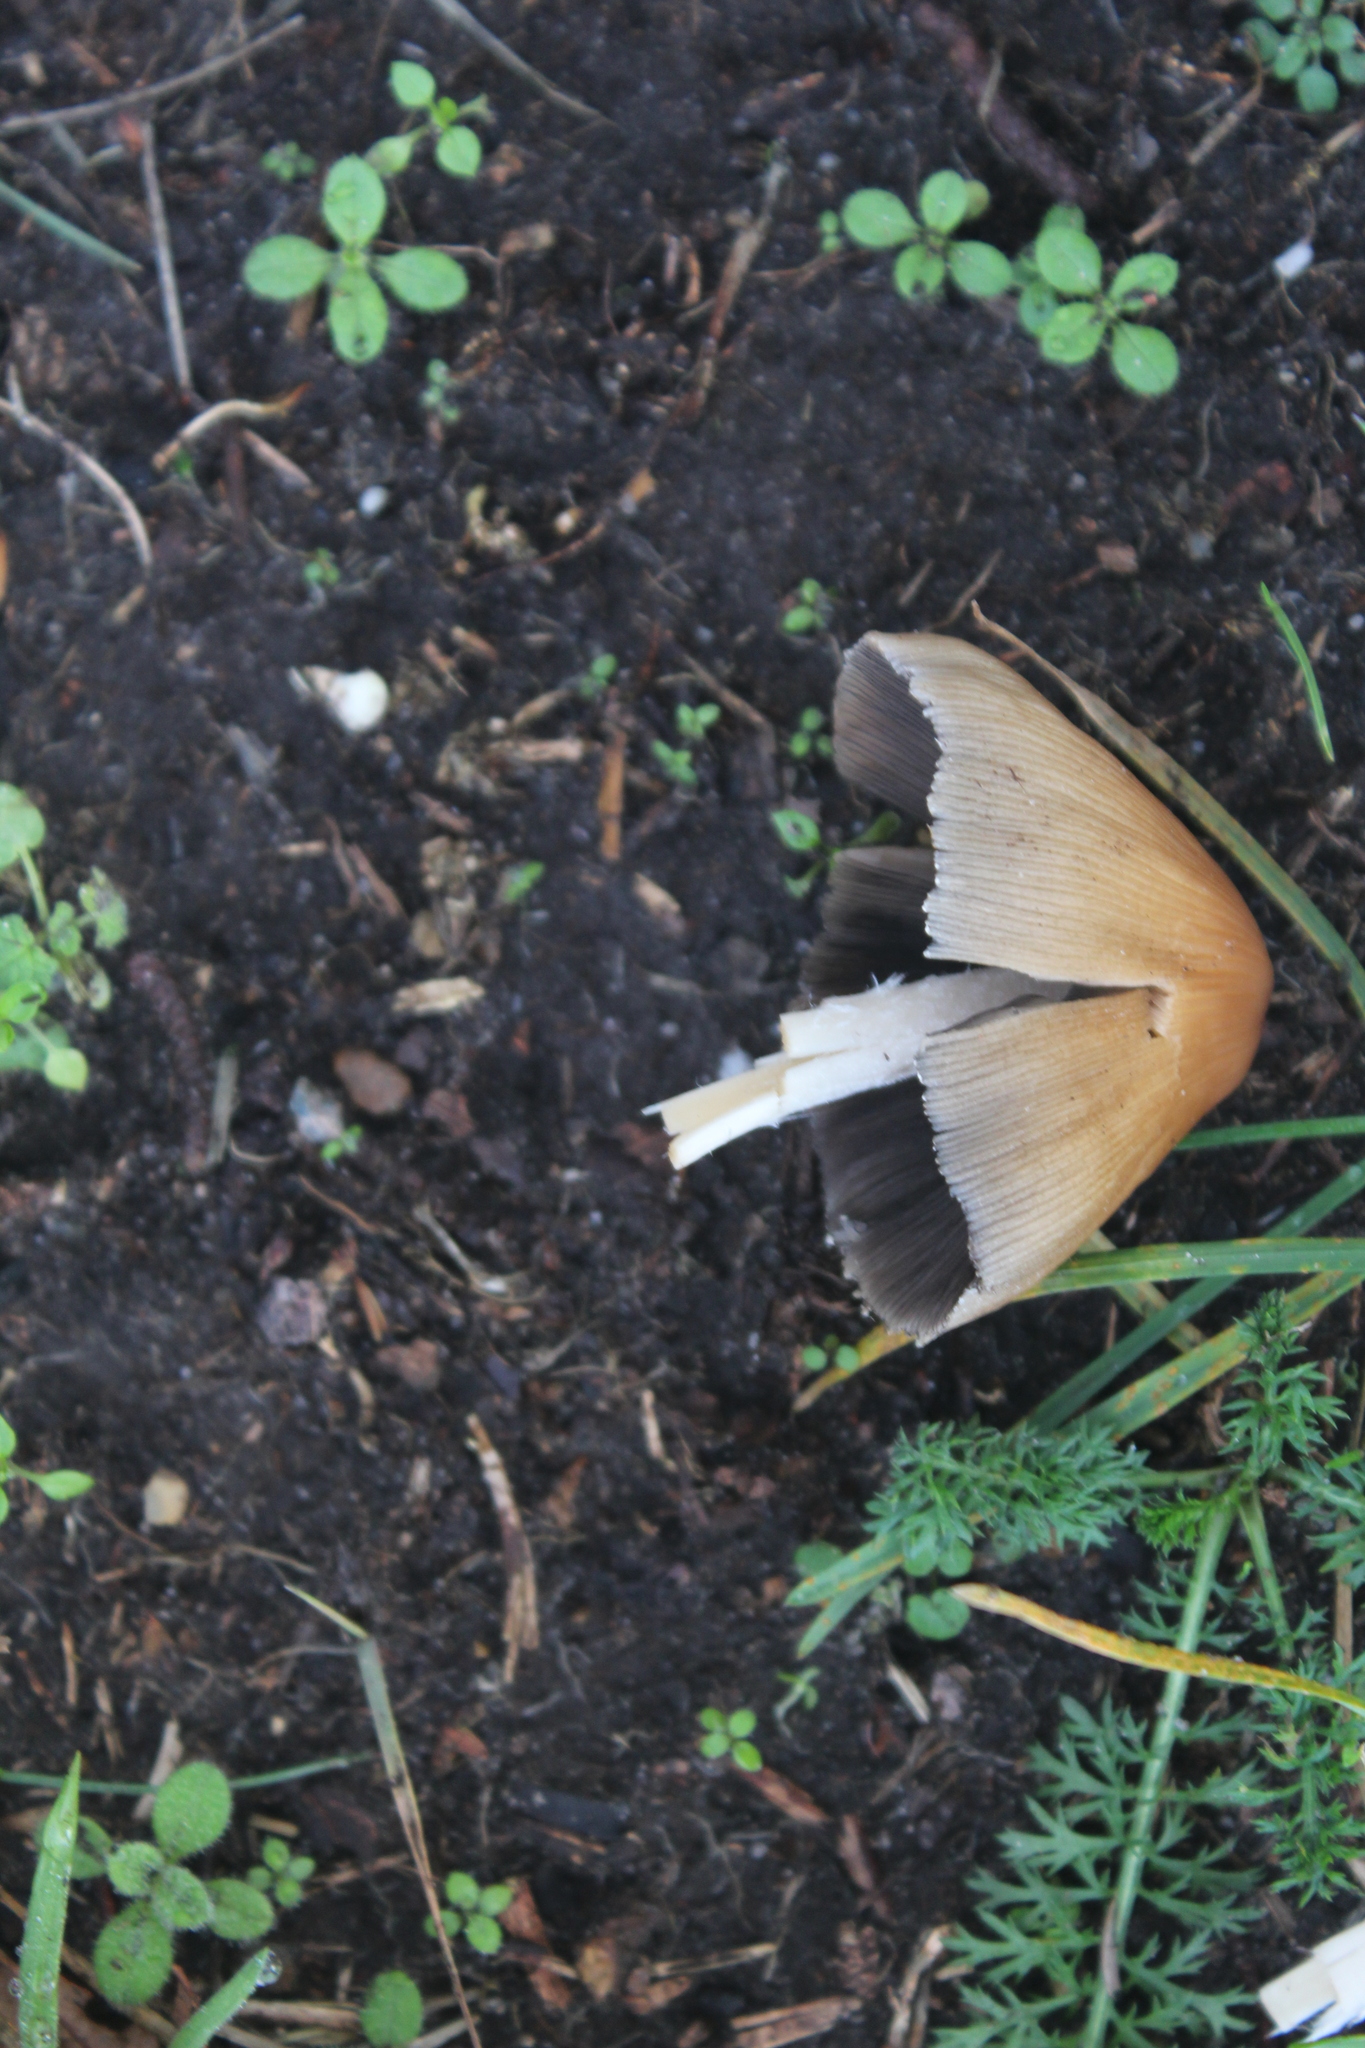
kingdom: Fungi
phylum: Basidiomycota
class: Agaricomycetes
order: Agaricales
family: Psathyrellaceae
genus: Coprinellus
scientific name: Coprinellus micaceus
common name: Glistening ink-cap
